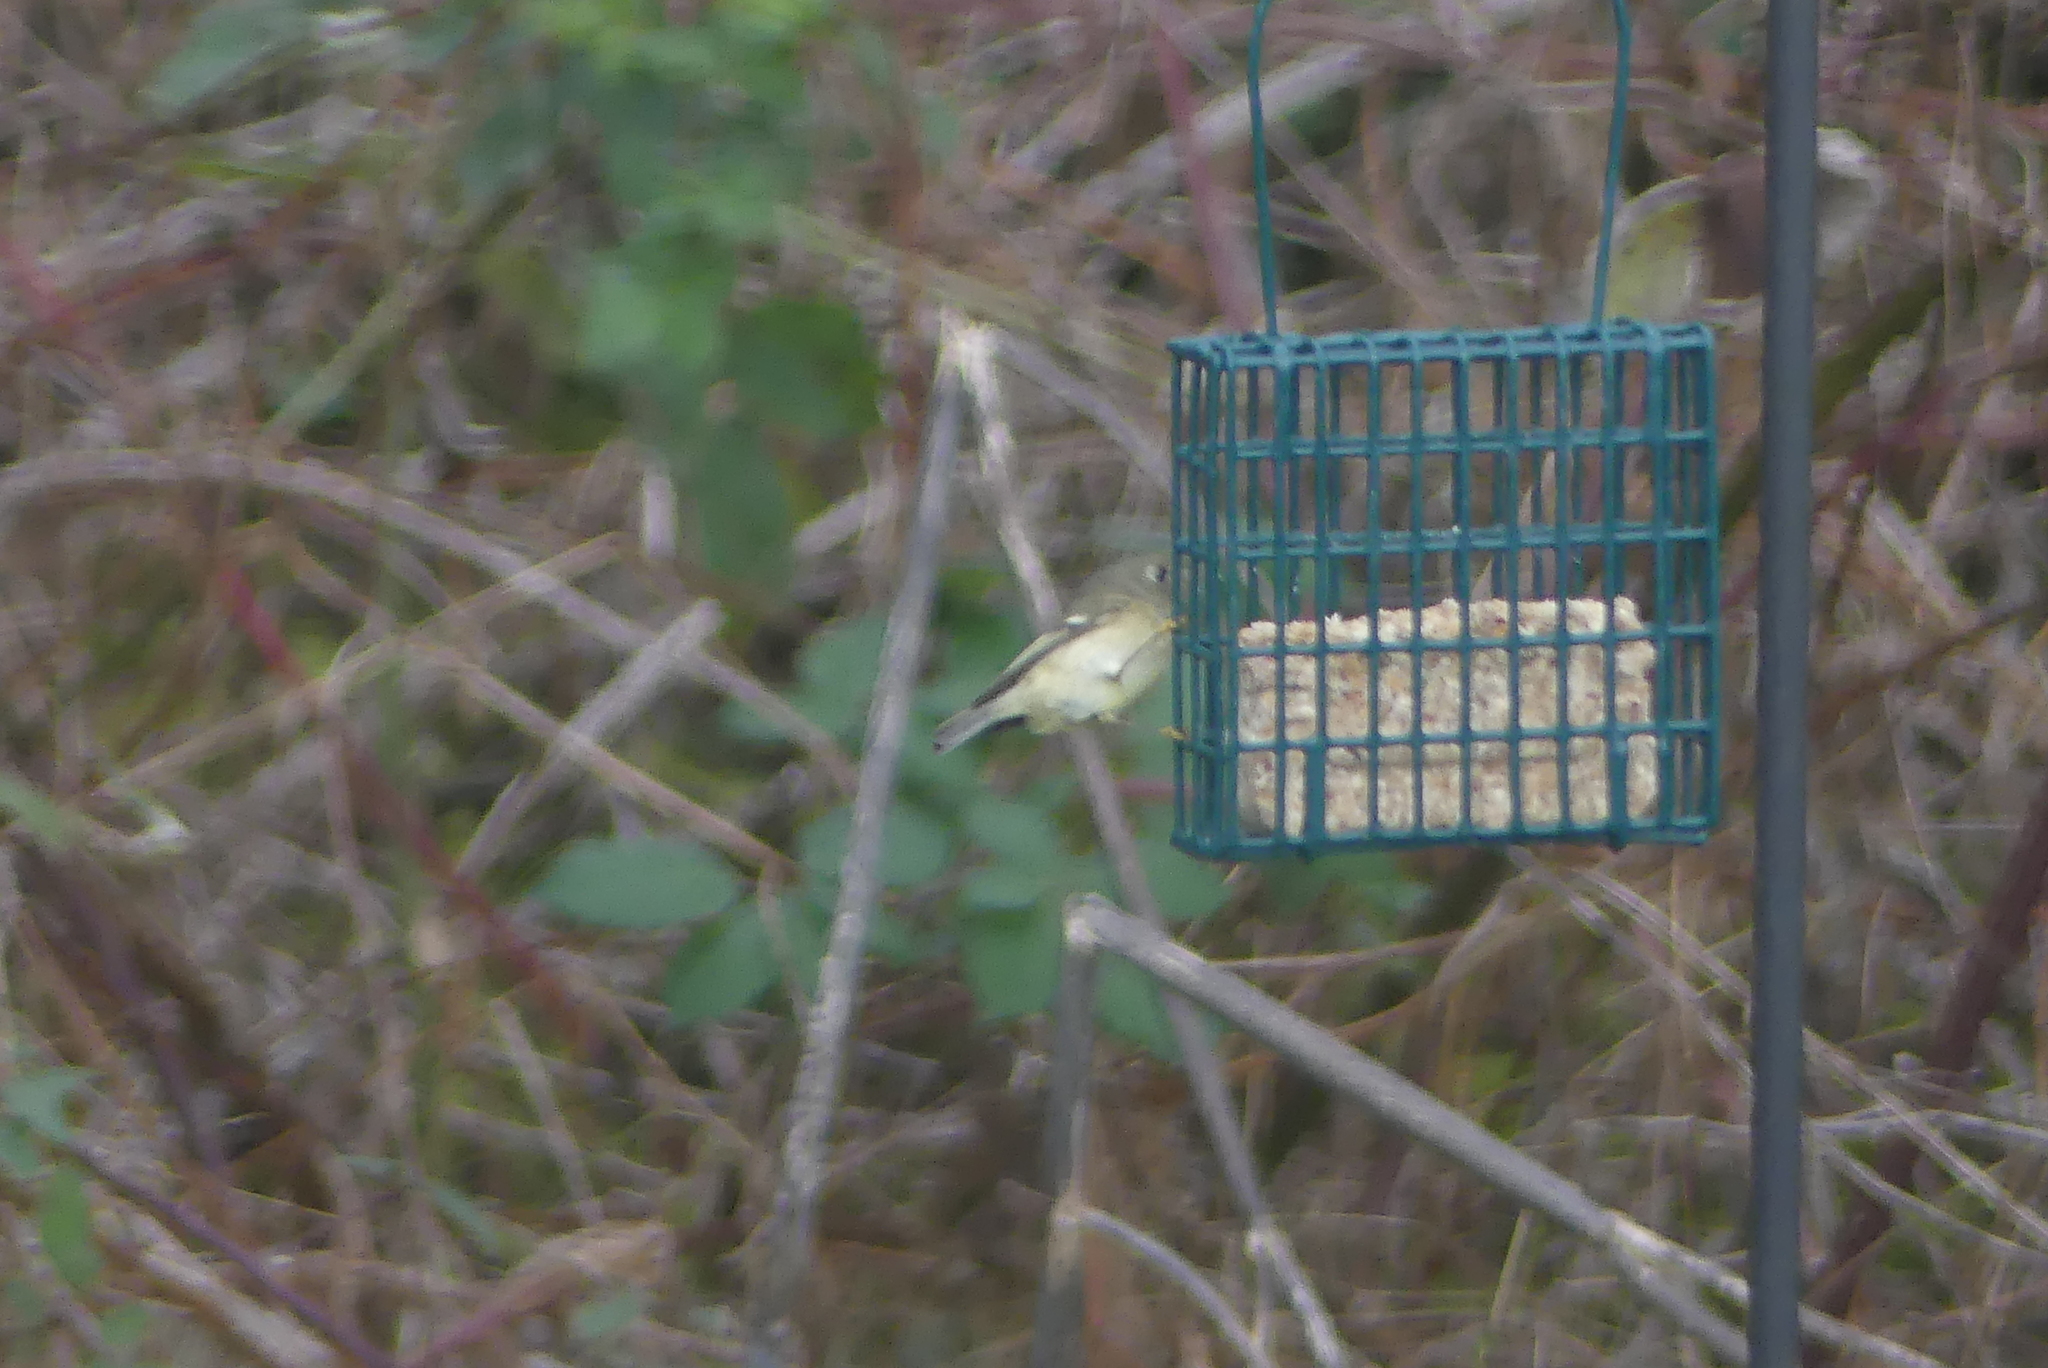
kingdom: Animalia
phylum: Chordata
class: Aves
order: Passeriformes
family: Regulidae
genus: Regulus
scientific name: Regulus calendula
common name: Ruby-crowned kinglet
